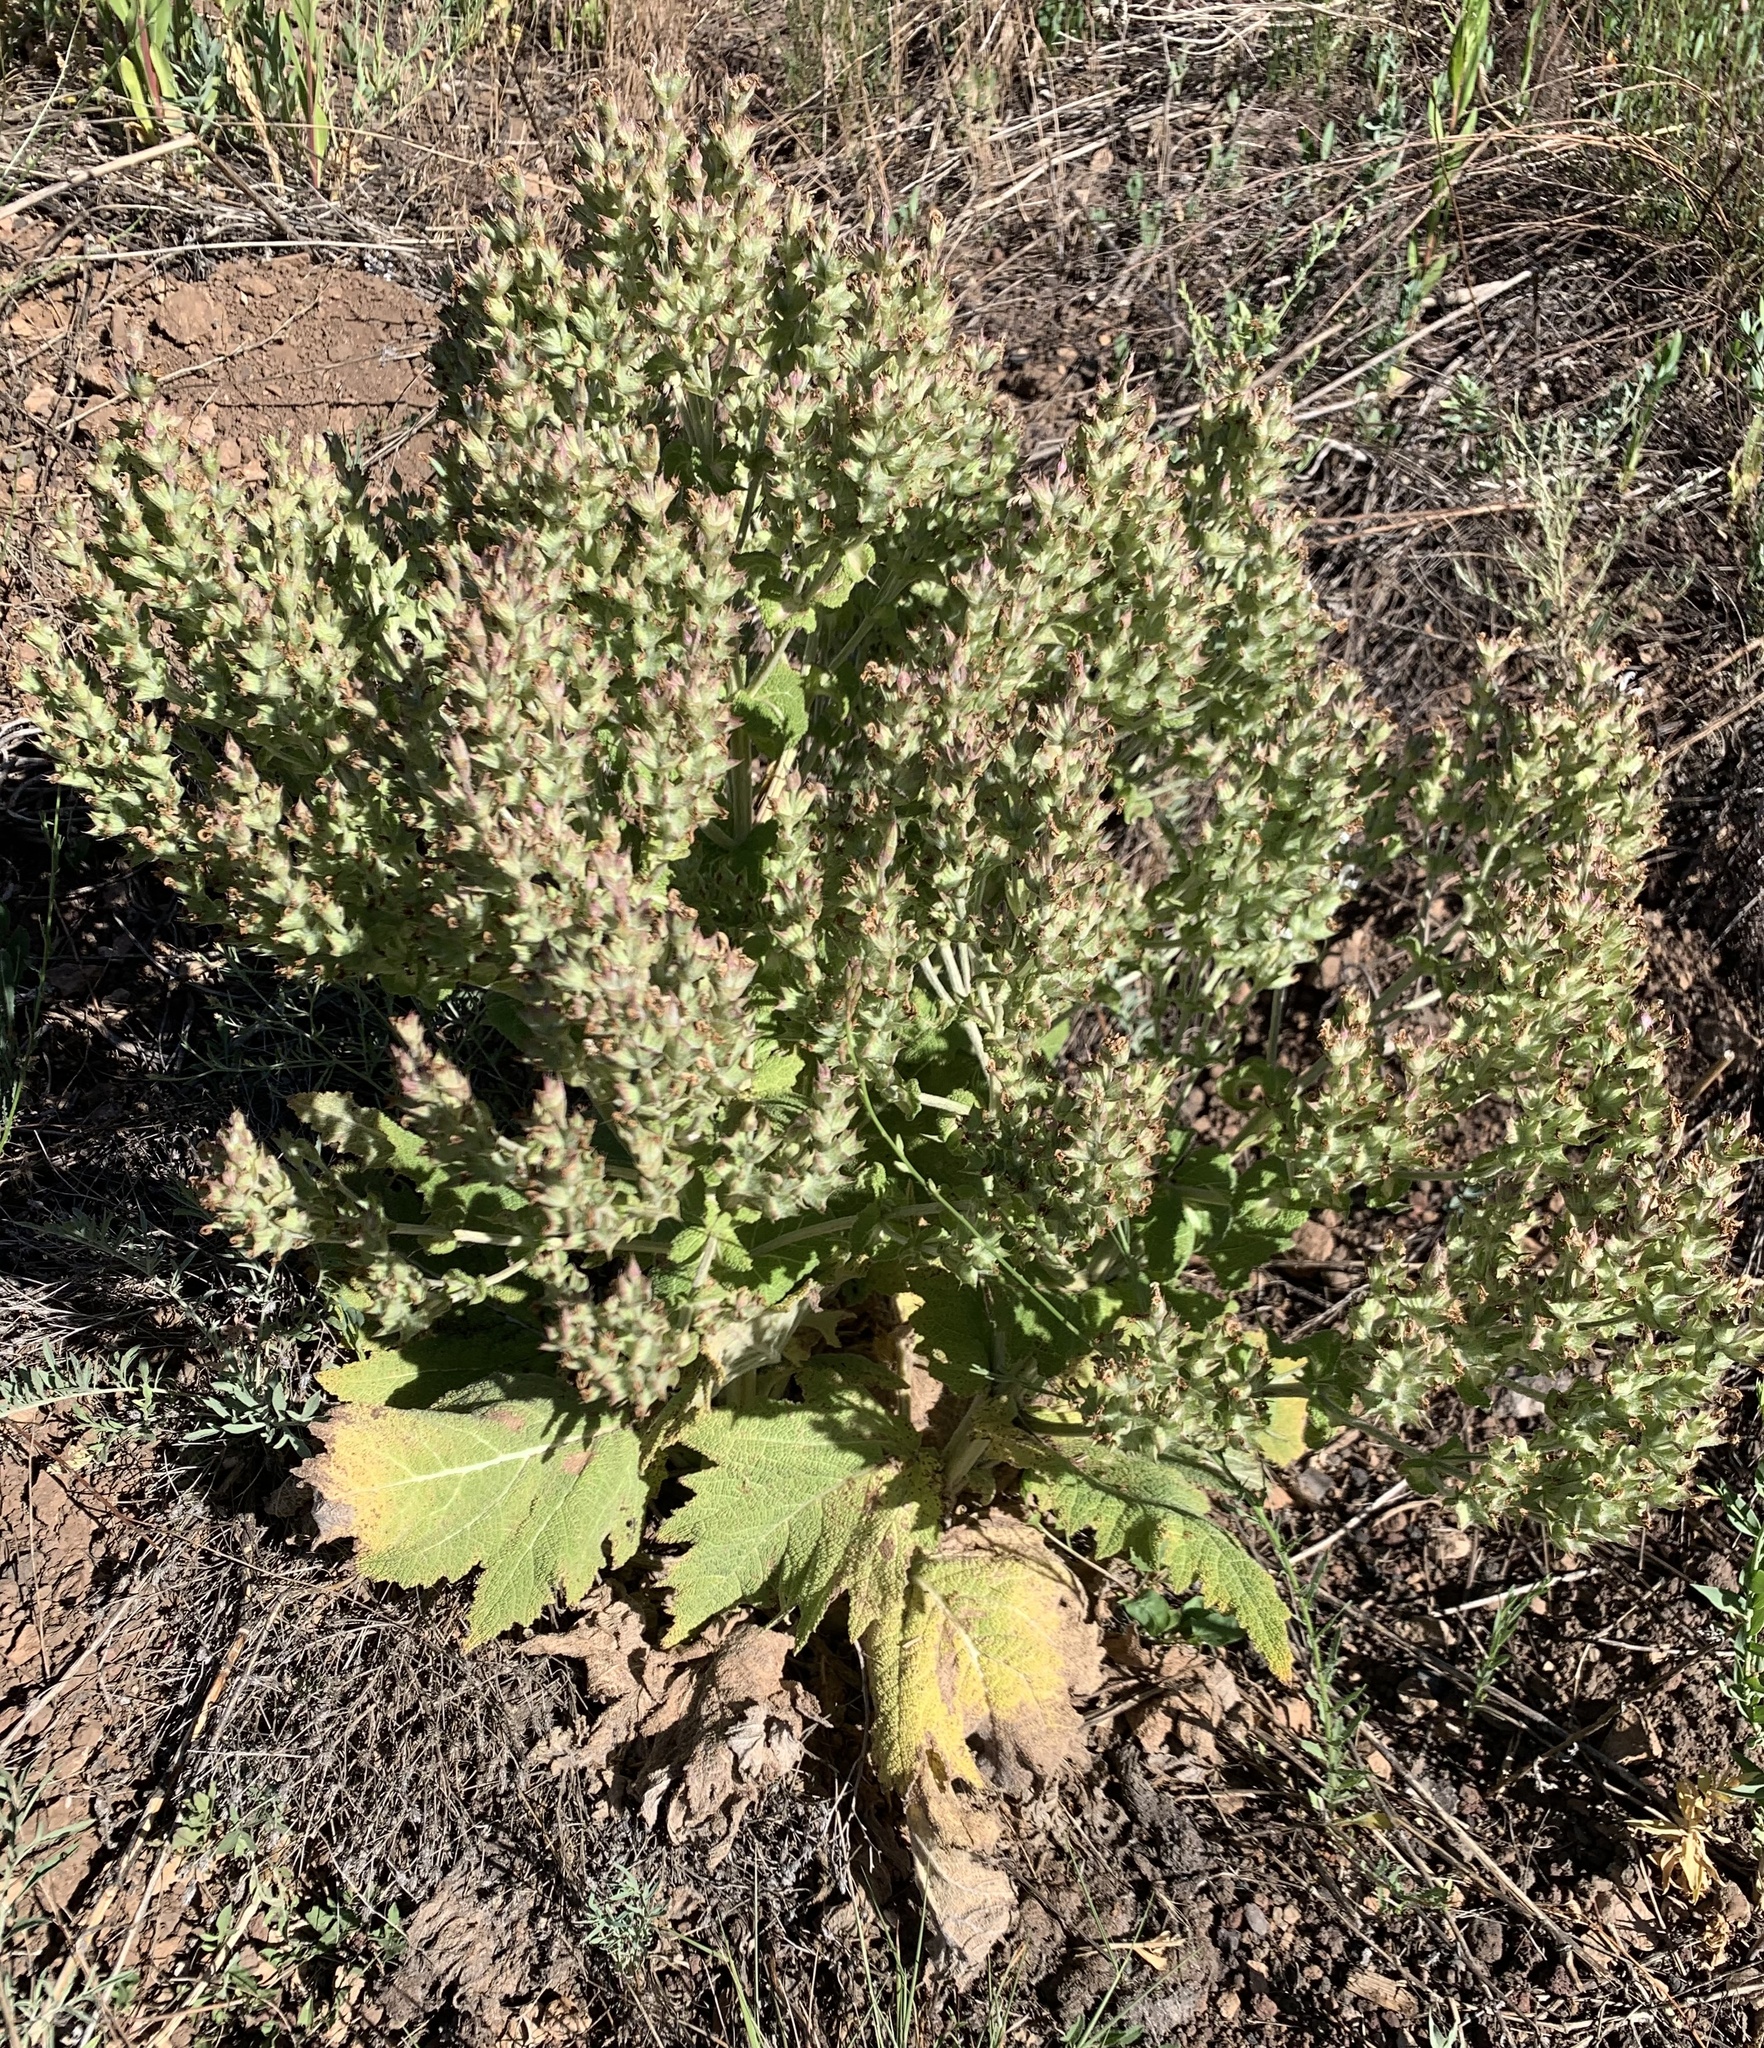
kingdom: Plantae
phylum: Tracheophyta
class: Magnoliopsida
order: Lamiales
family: Lamiaceae
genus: Salvia
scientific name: Salvia aethiopis
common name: Mediterranean sage
